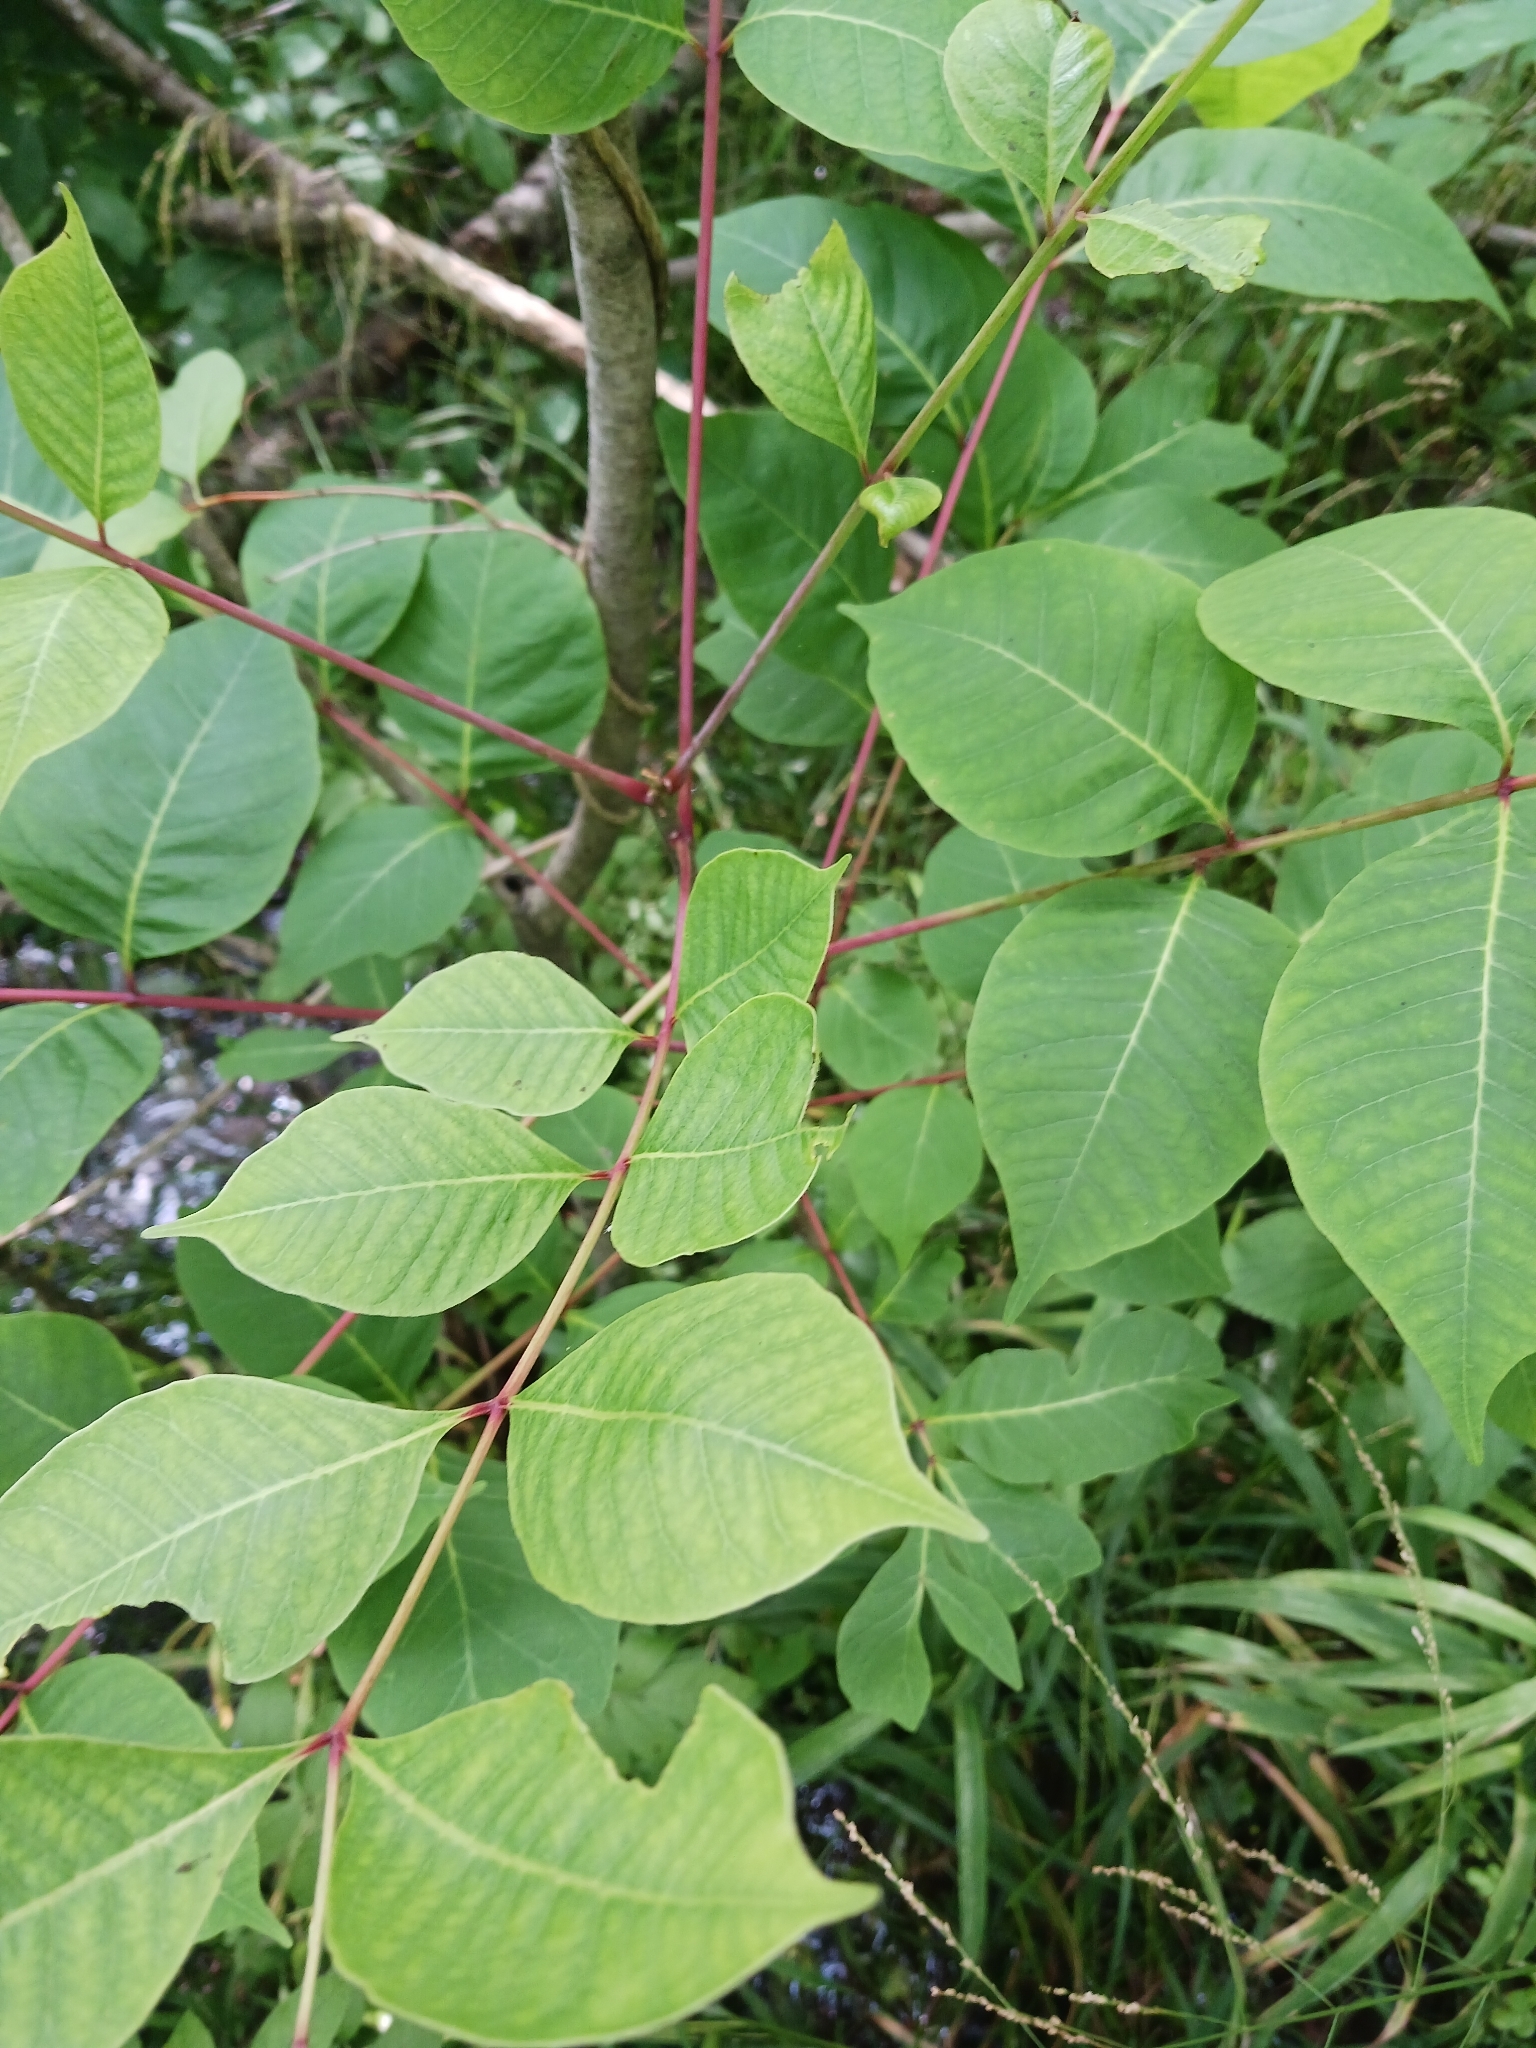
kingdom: Plantae
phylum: Tracheophyta
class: Magnoliopsida
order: Sapindales
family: Anacardiaceae
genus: Toxicodendron
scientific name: Toxicodendron vernix
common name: Poison sumac
